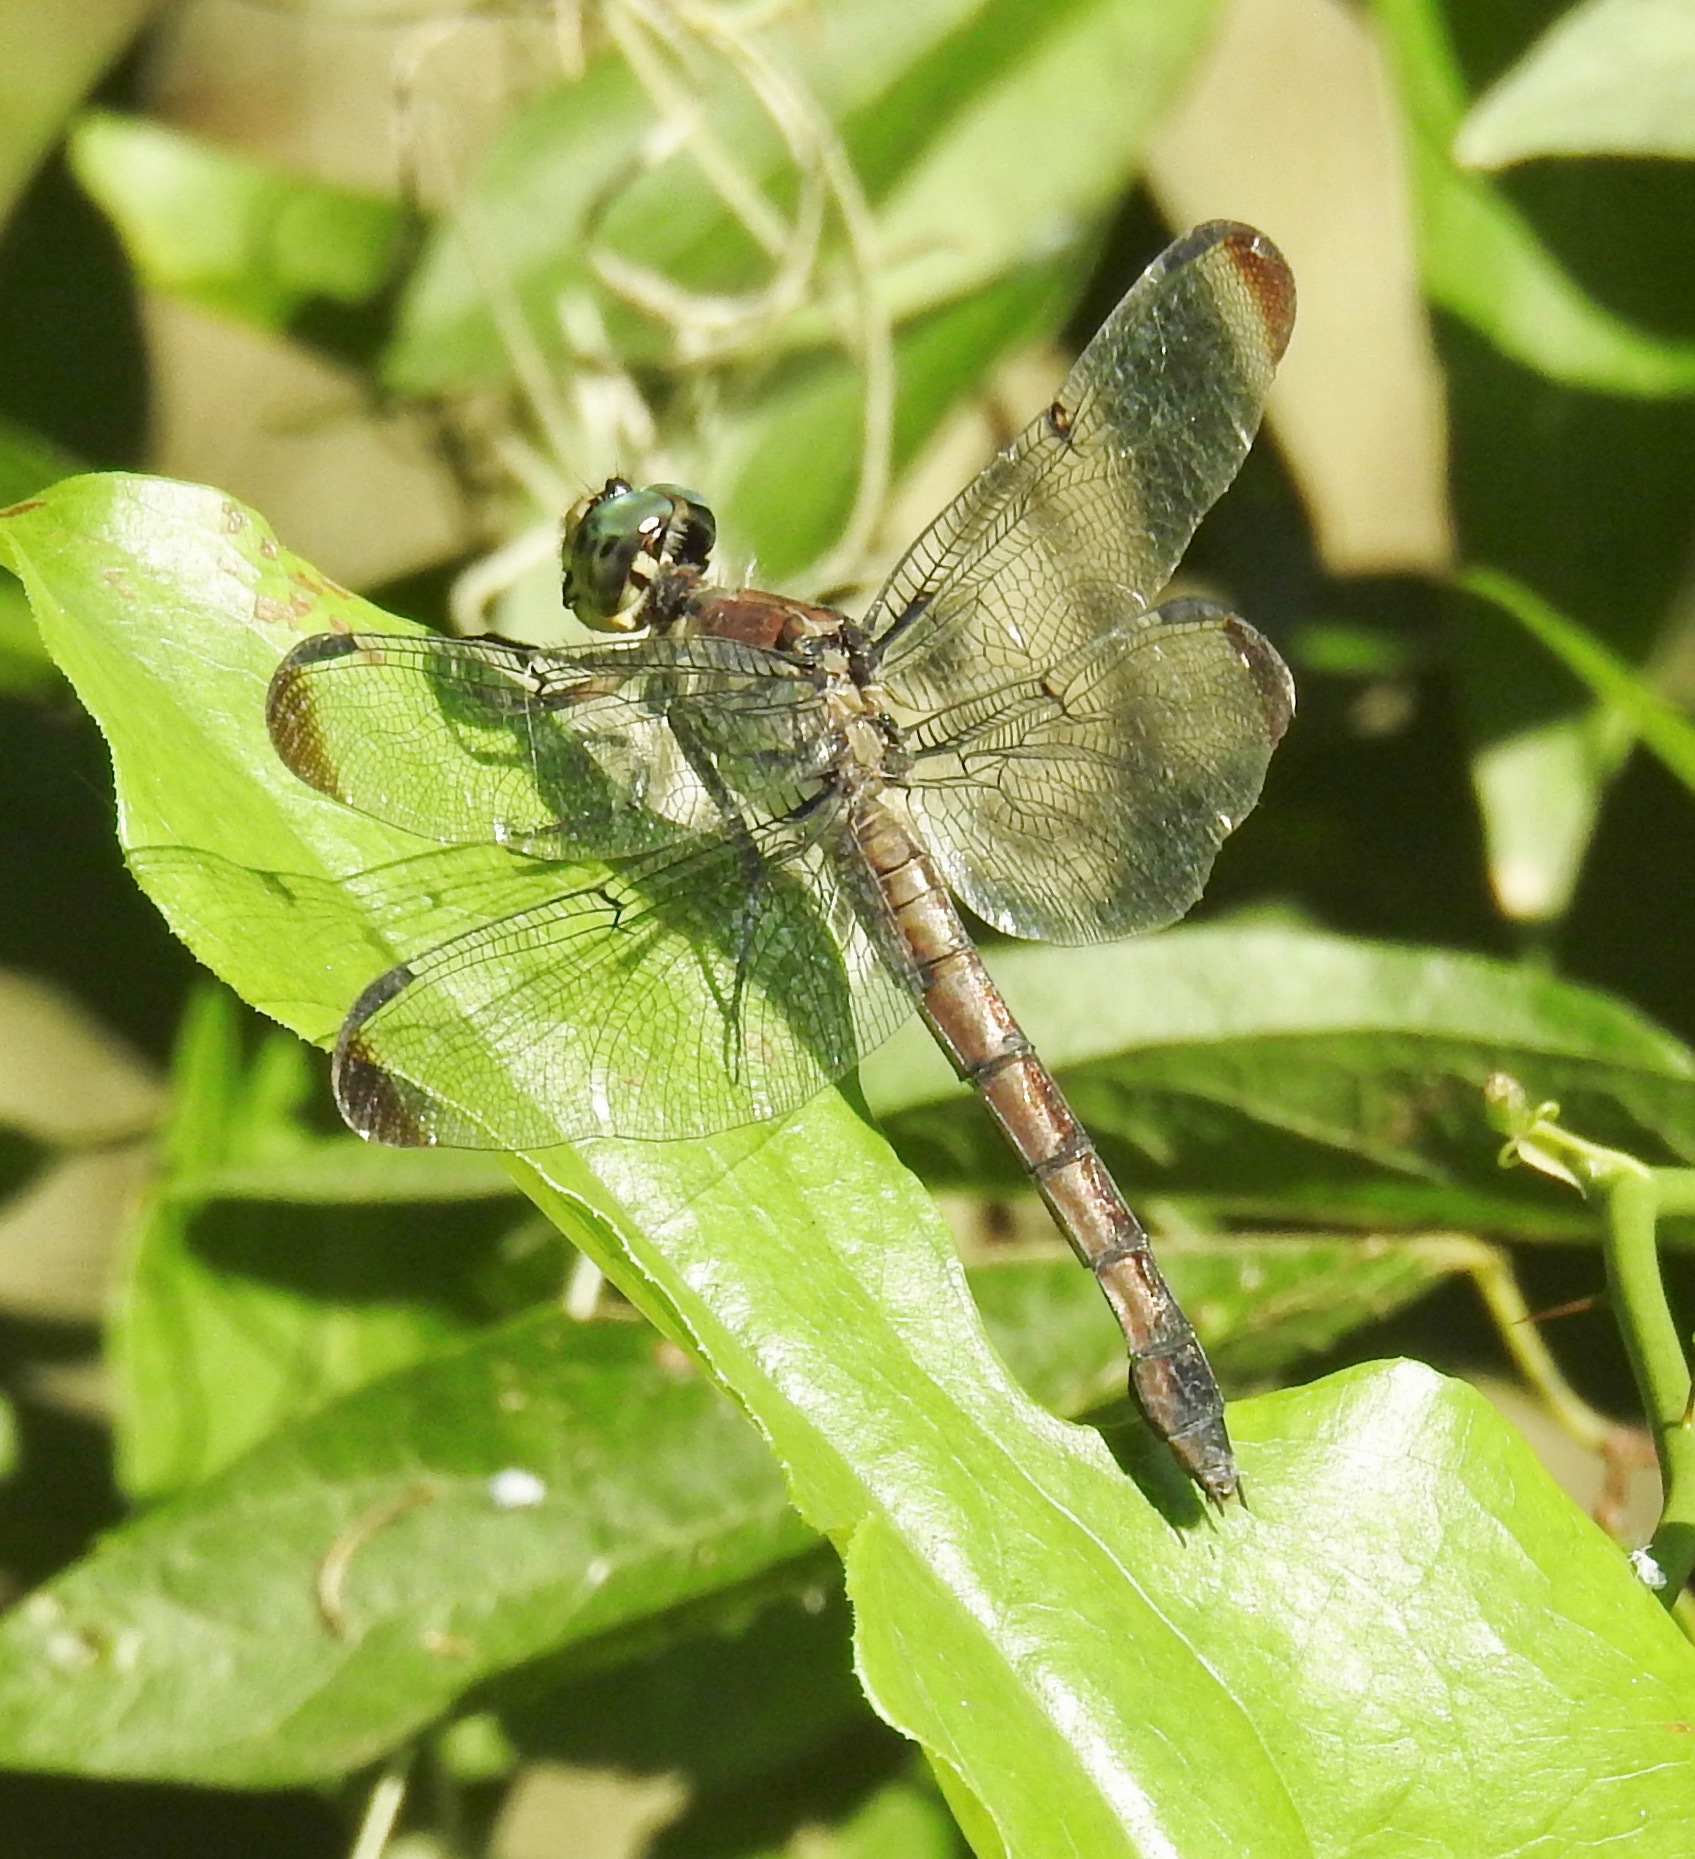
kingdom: Animalia
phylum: Arthropoda
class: Insecta
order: Odonata
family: Libellulidae
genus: Libellula
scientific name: Libellula vibrans
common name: Great blue skimmer
